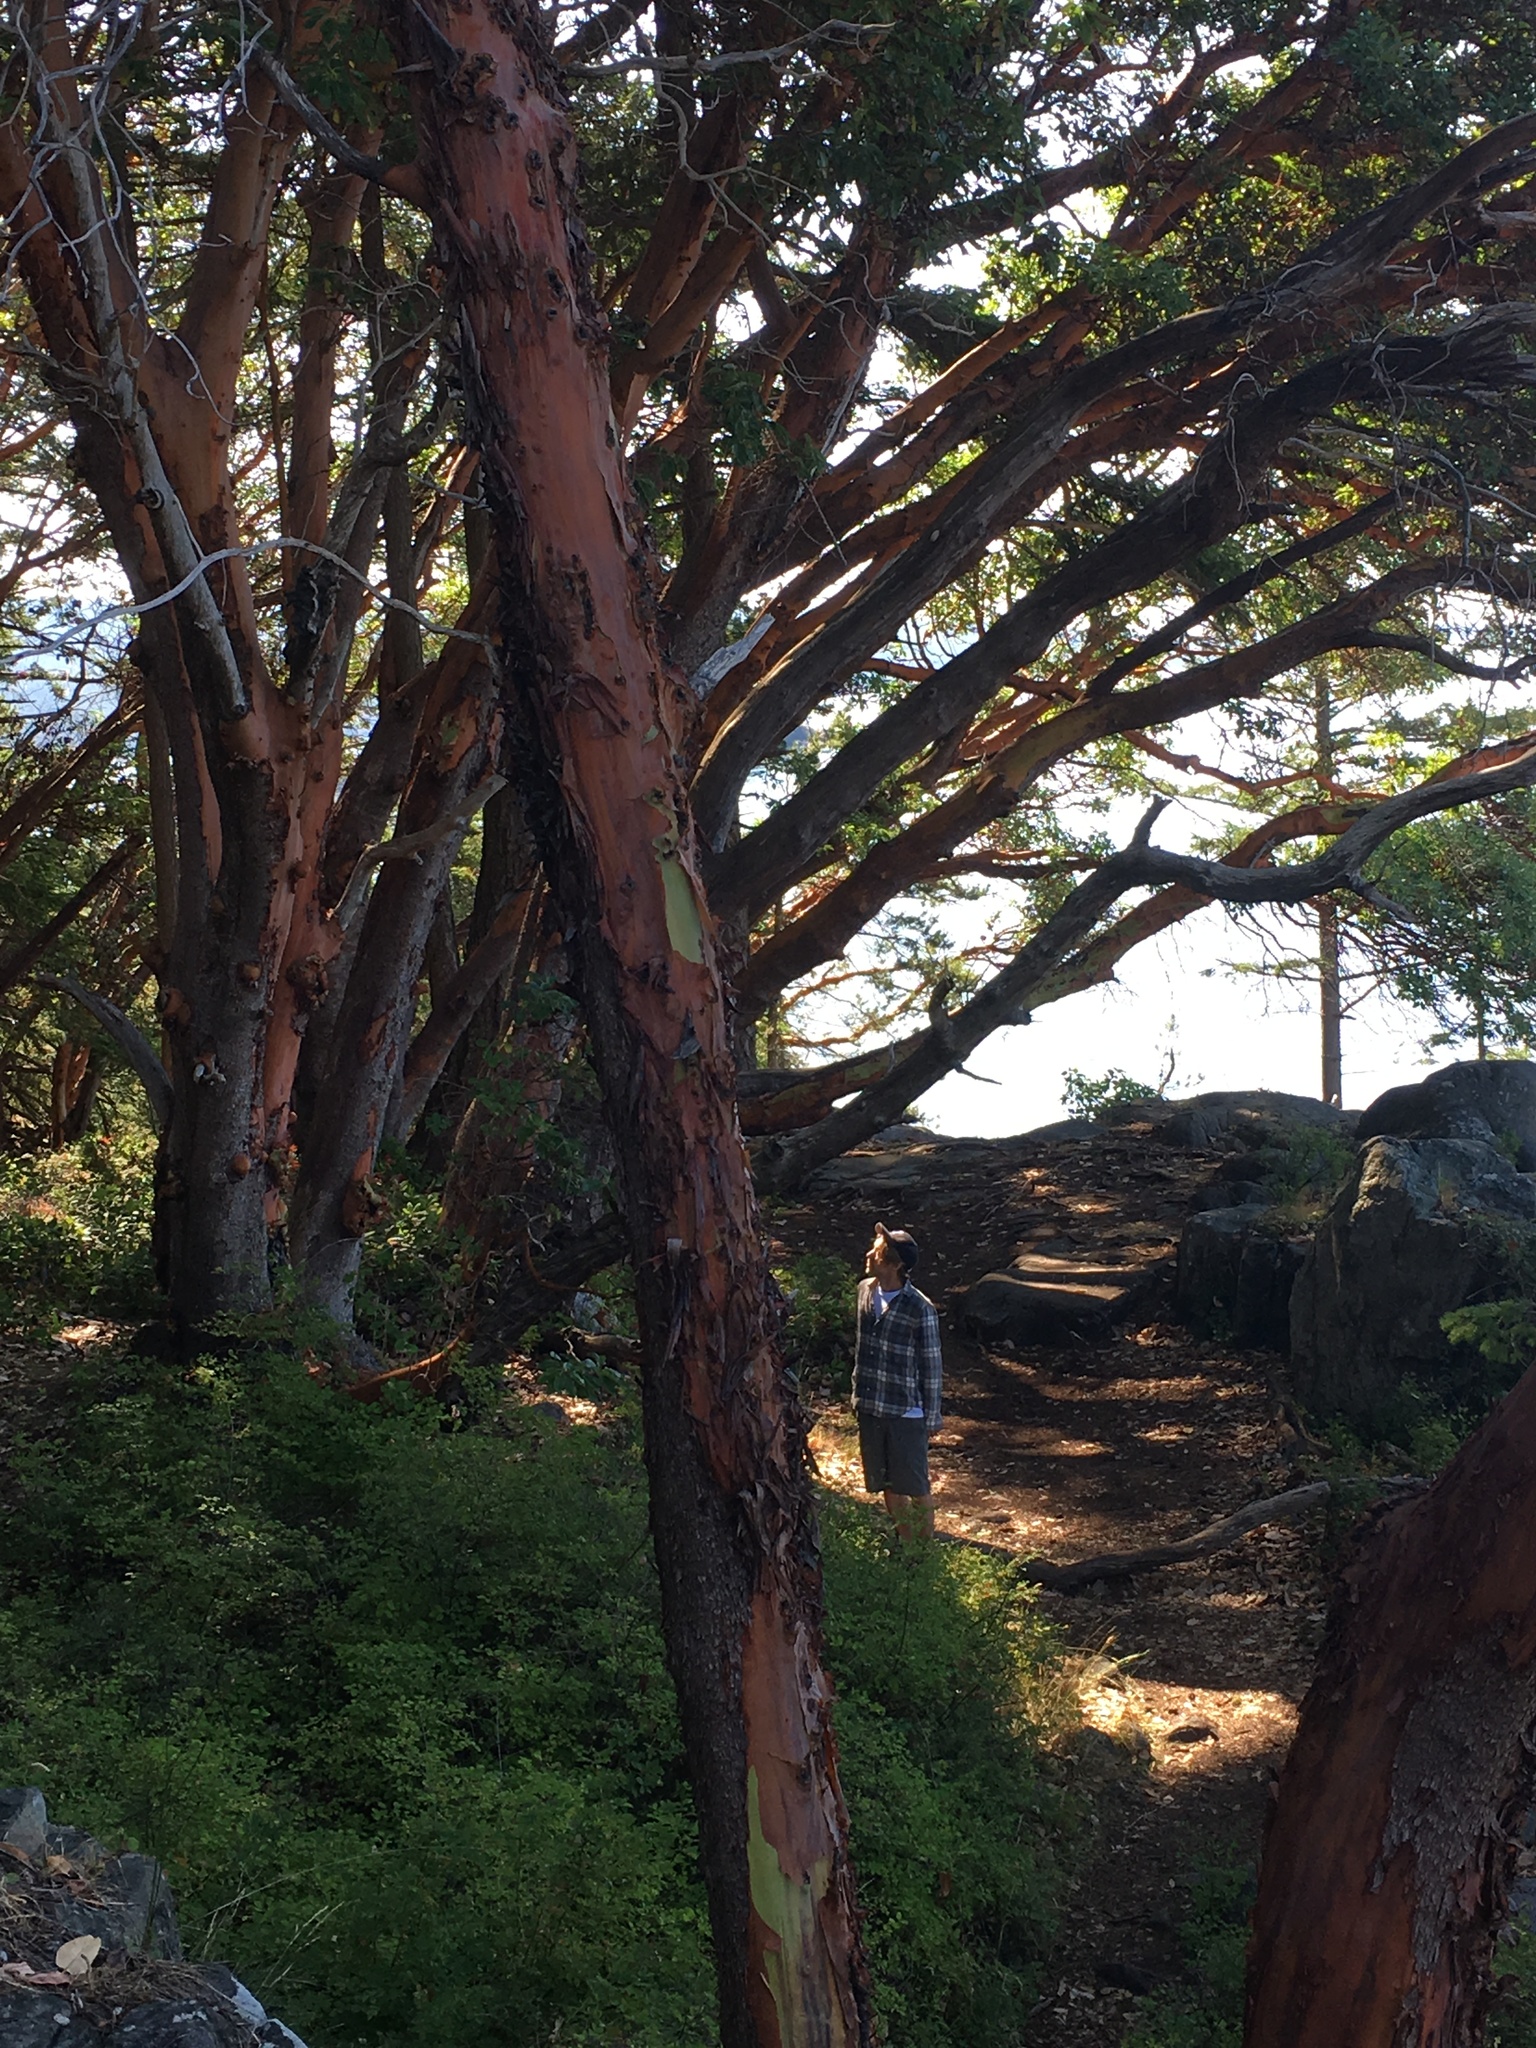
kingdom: Plantae
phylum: Tracheophyta
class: Magnoliopsida
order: Ericales
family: Ericaceae
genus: Arbutus
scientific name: Arbutus menziesii
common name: Pacific madrone
